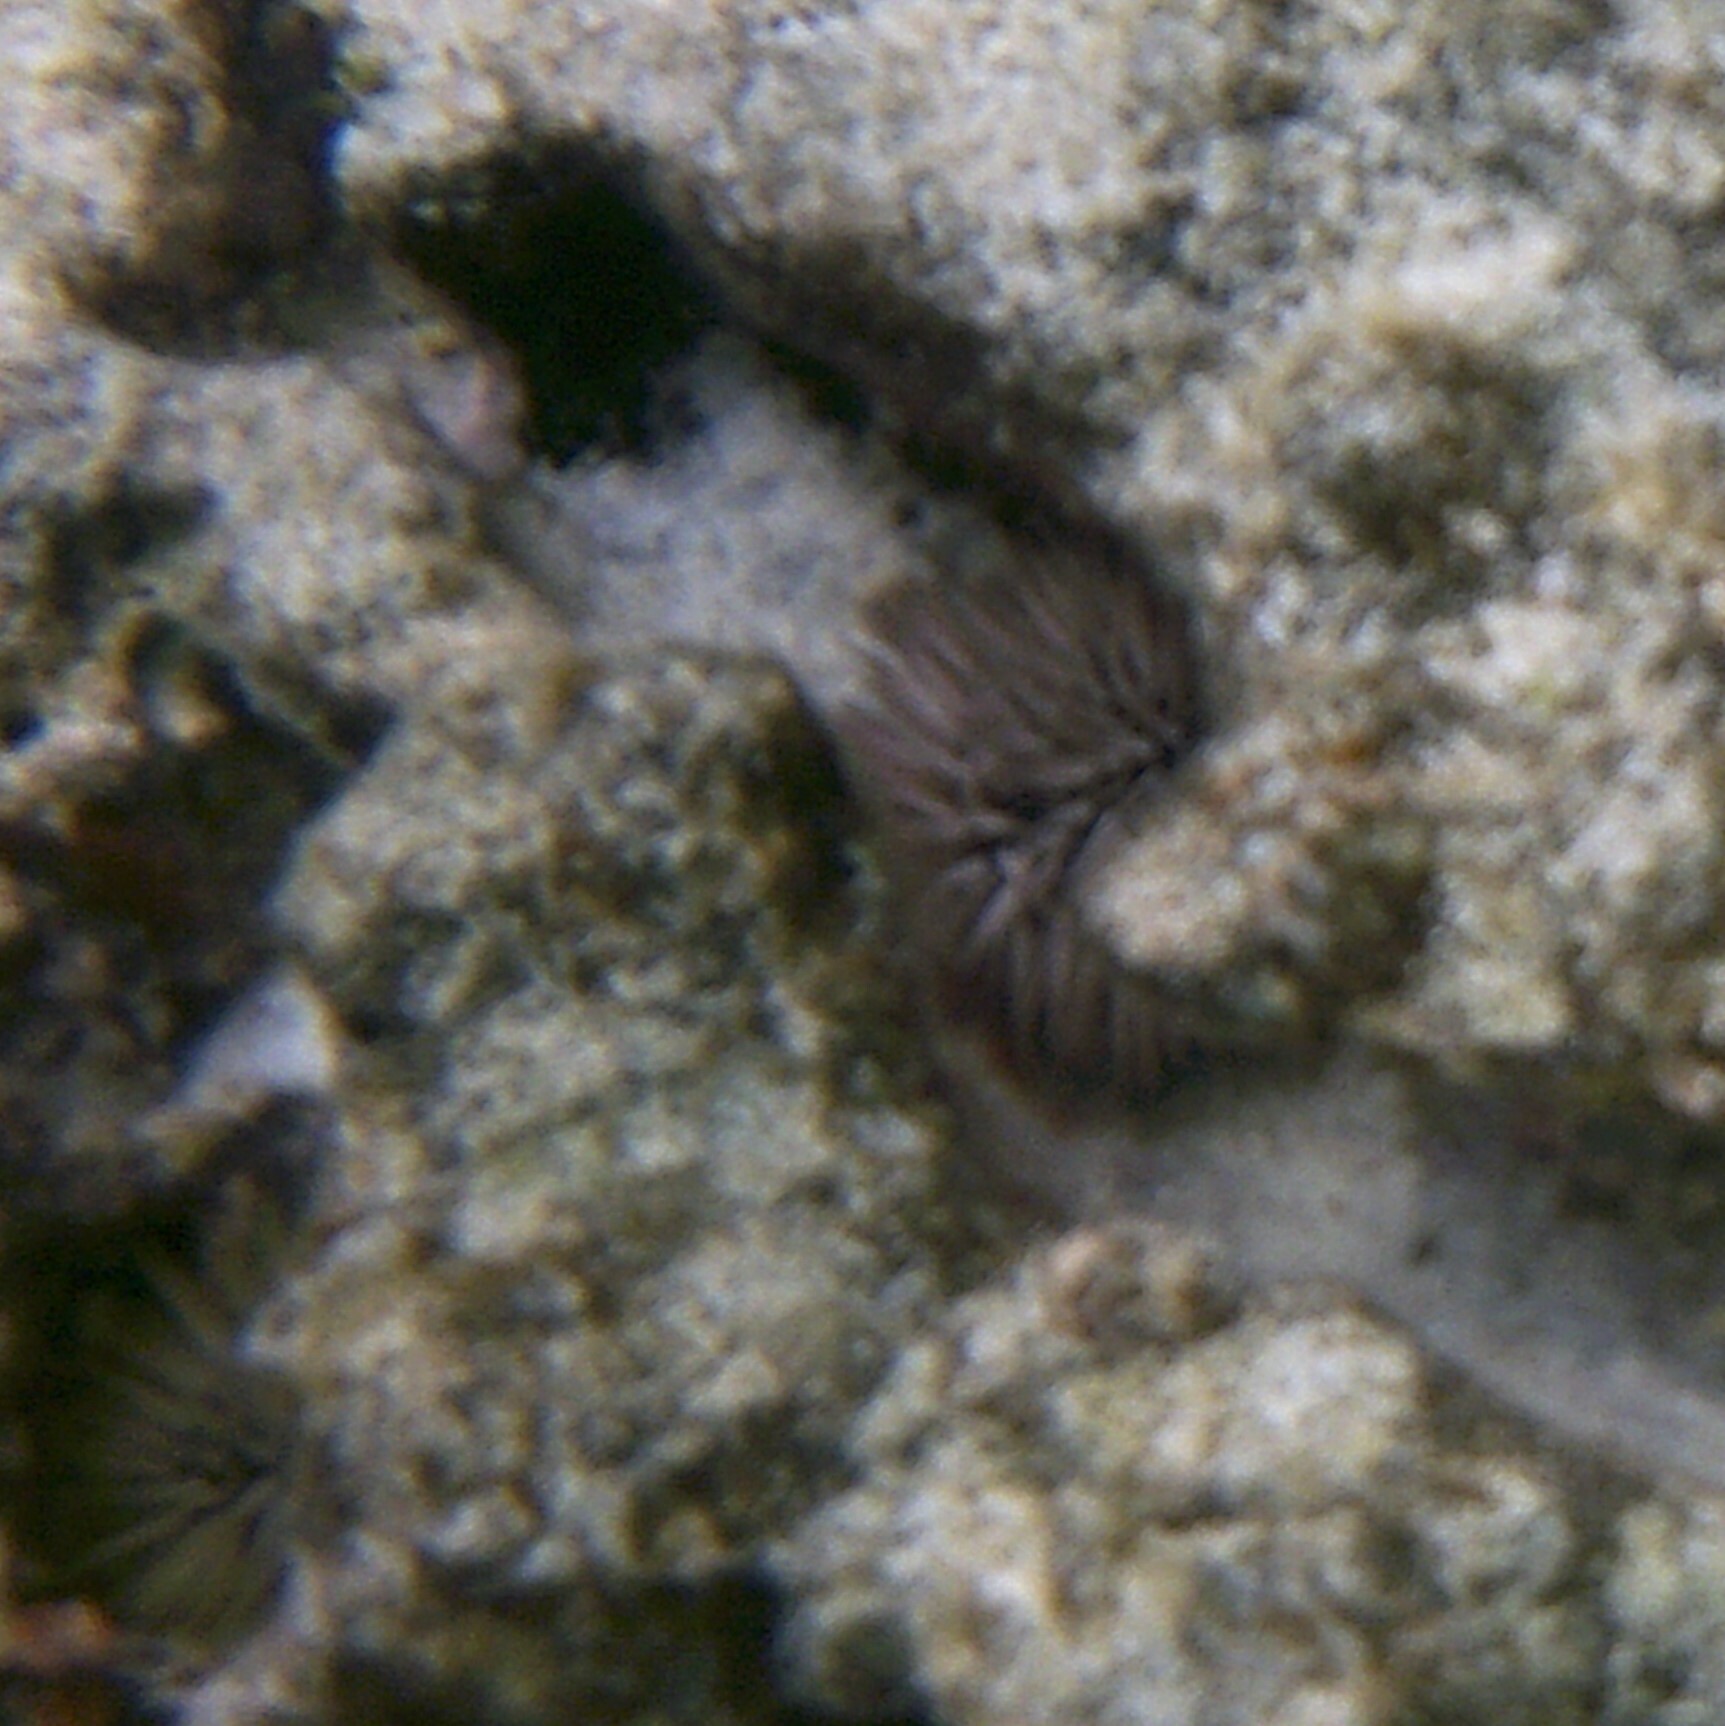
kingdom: Animalia
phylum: Echinodermata
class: Echinoidea
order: Camarodonta
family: Echinometridae
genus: Echinometra
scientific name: Echinometra mathaei
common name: Rock-boring urchin
